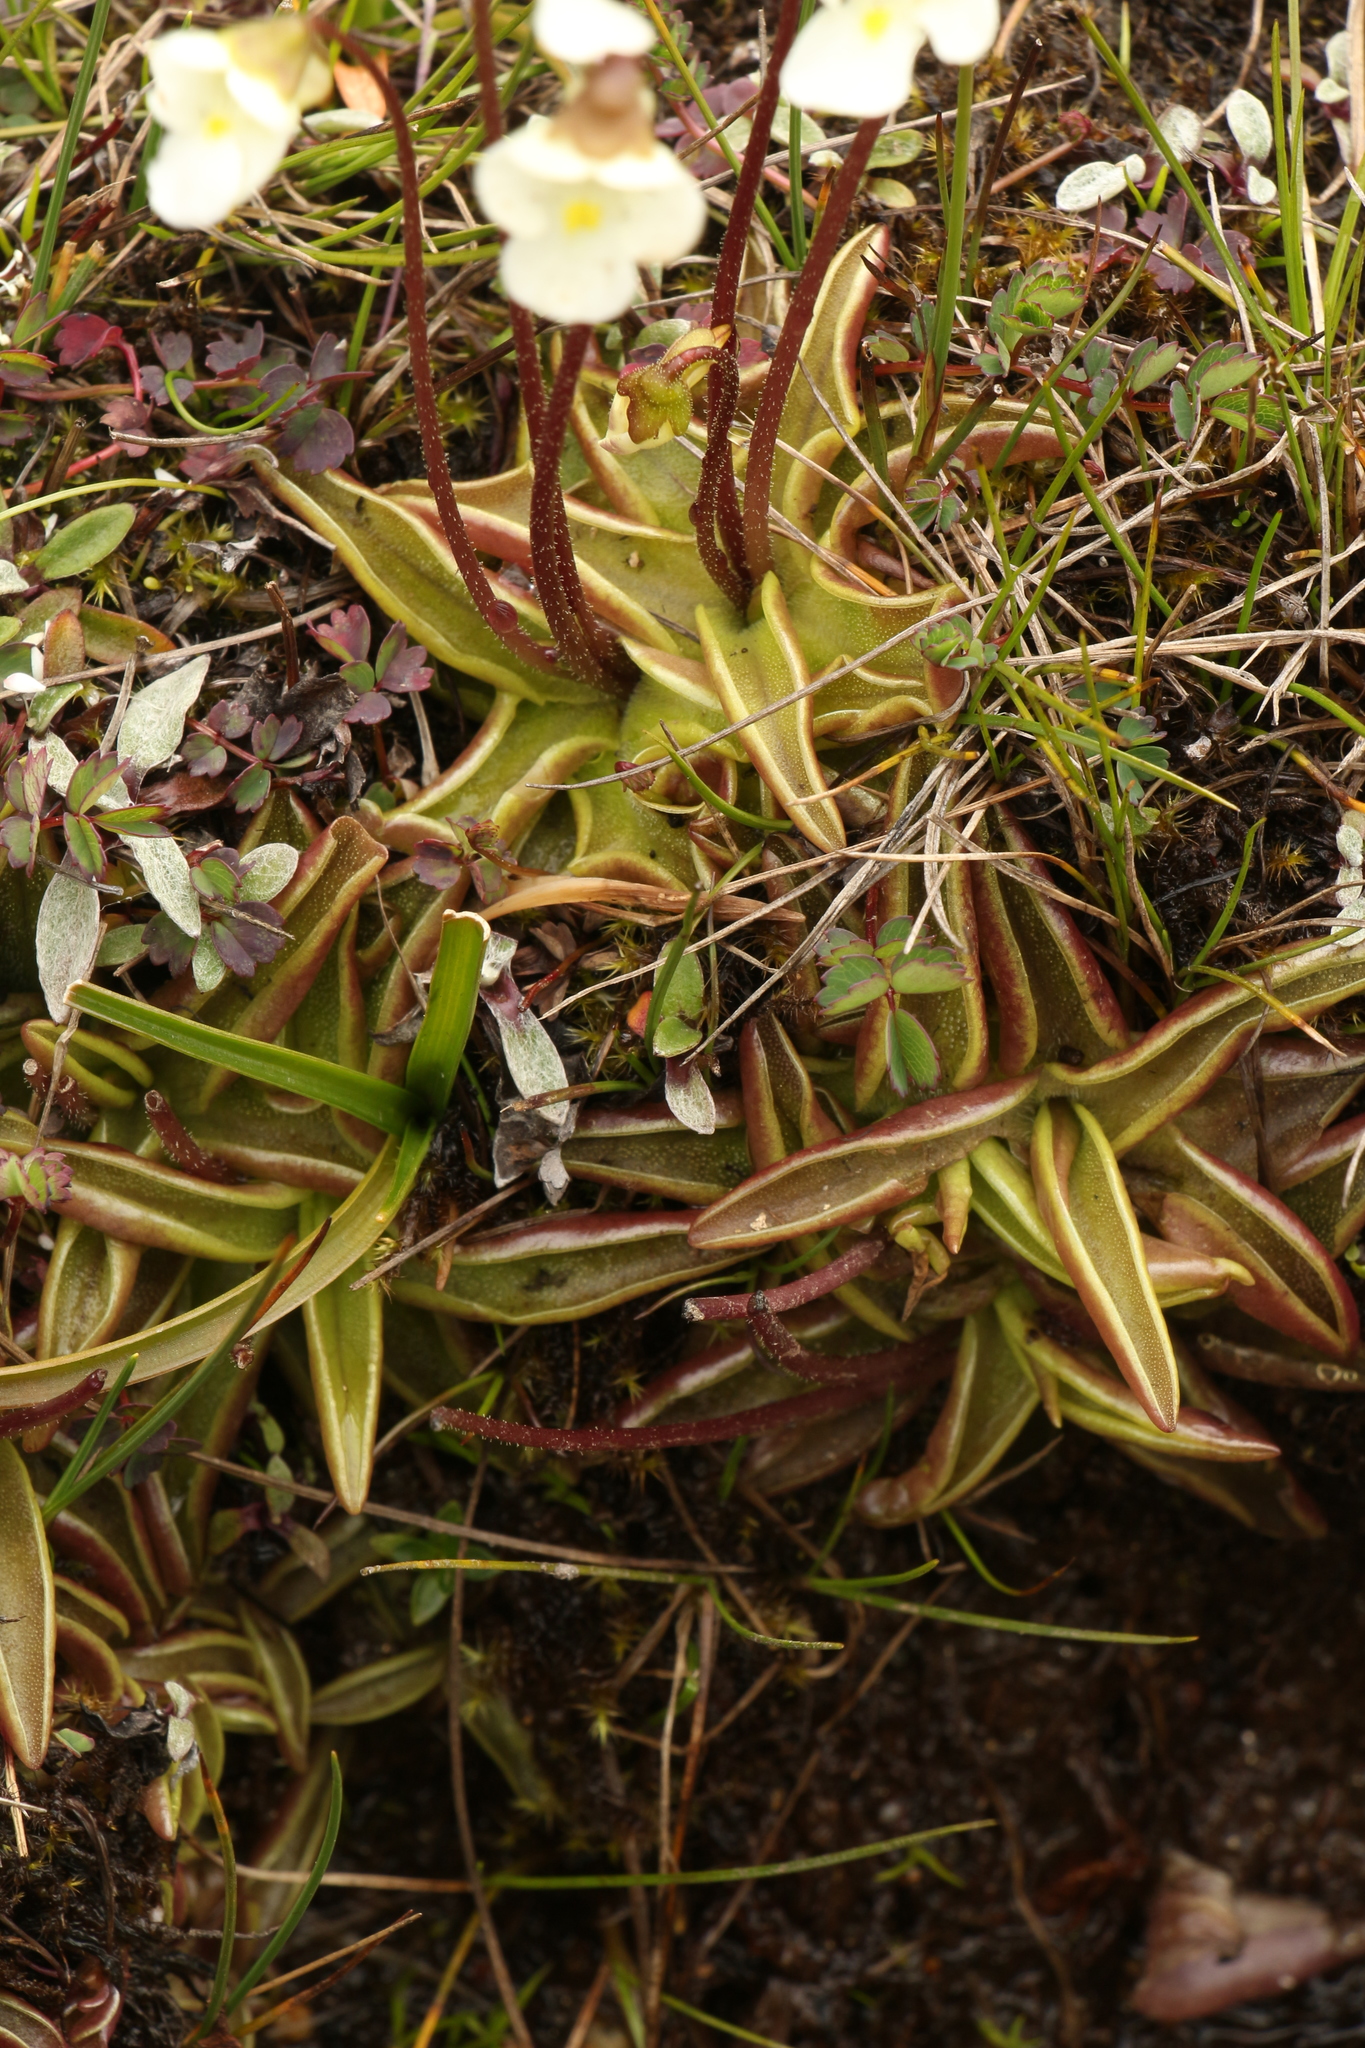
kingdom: Plantae
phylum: Tracheophyta
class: Magnoliopsida
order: Lamiales
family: Lentibulariaceae
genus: Pinguicula
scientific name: Pinguicula alpina
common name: Alpine butterwort
